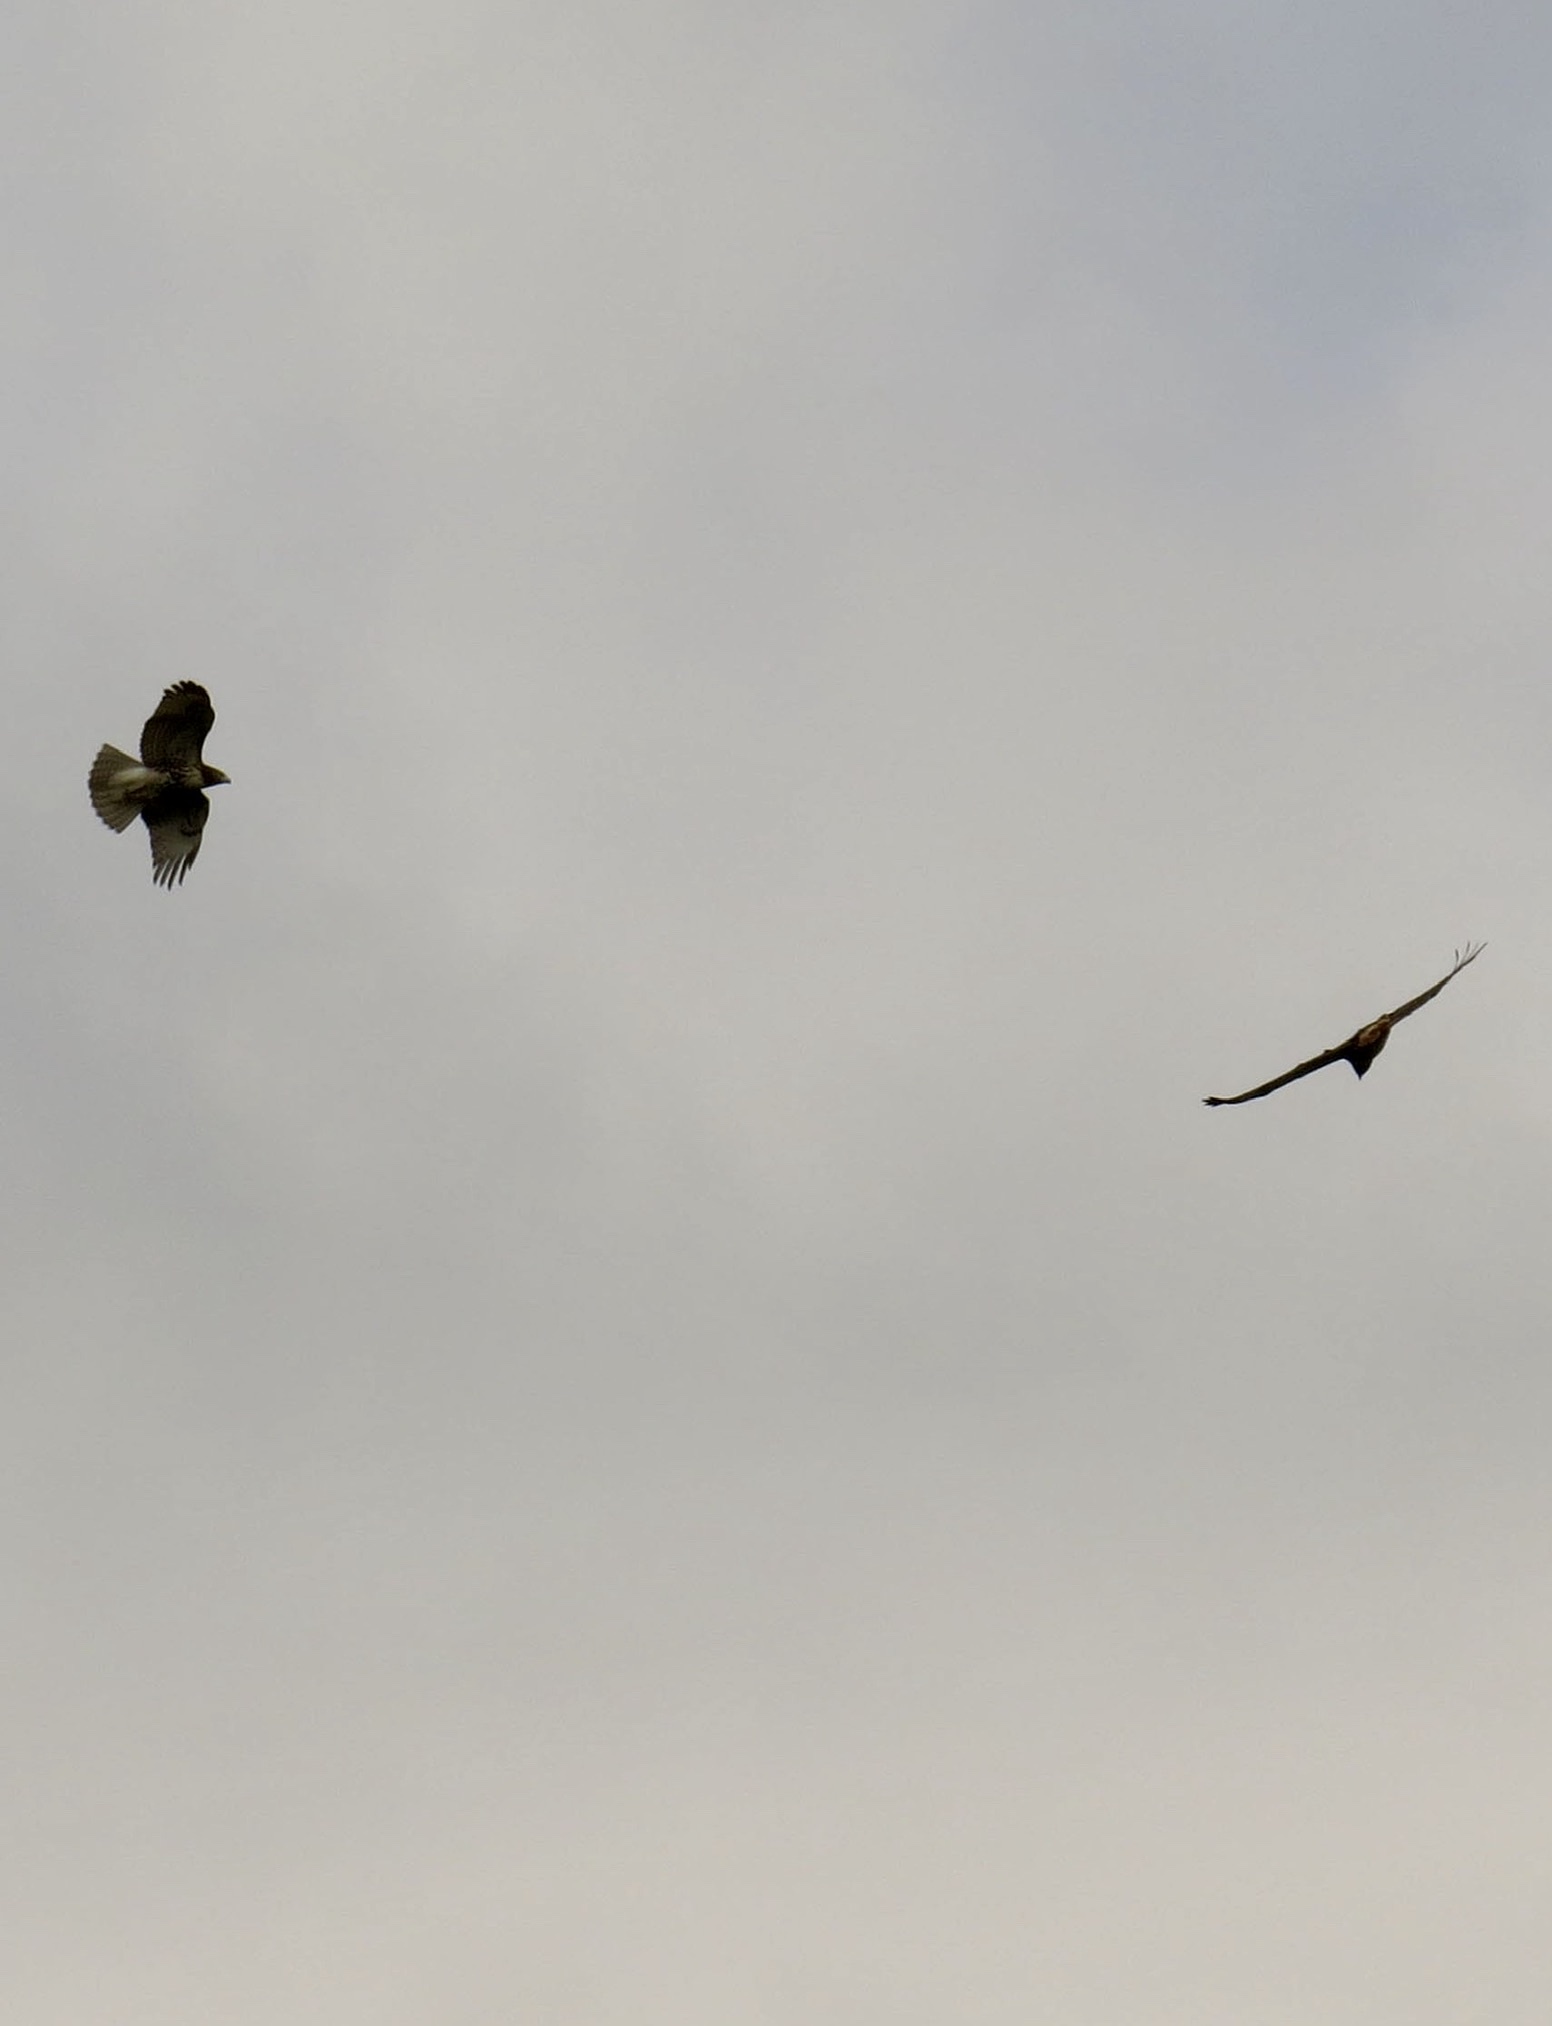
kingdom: Animalia
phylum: Chordata
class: Aves
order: Accipitriformes
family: Accipitridae
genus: Buteo
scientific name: Buteo jamaicensis
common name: Red-tailed hawk
